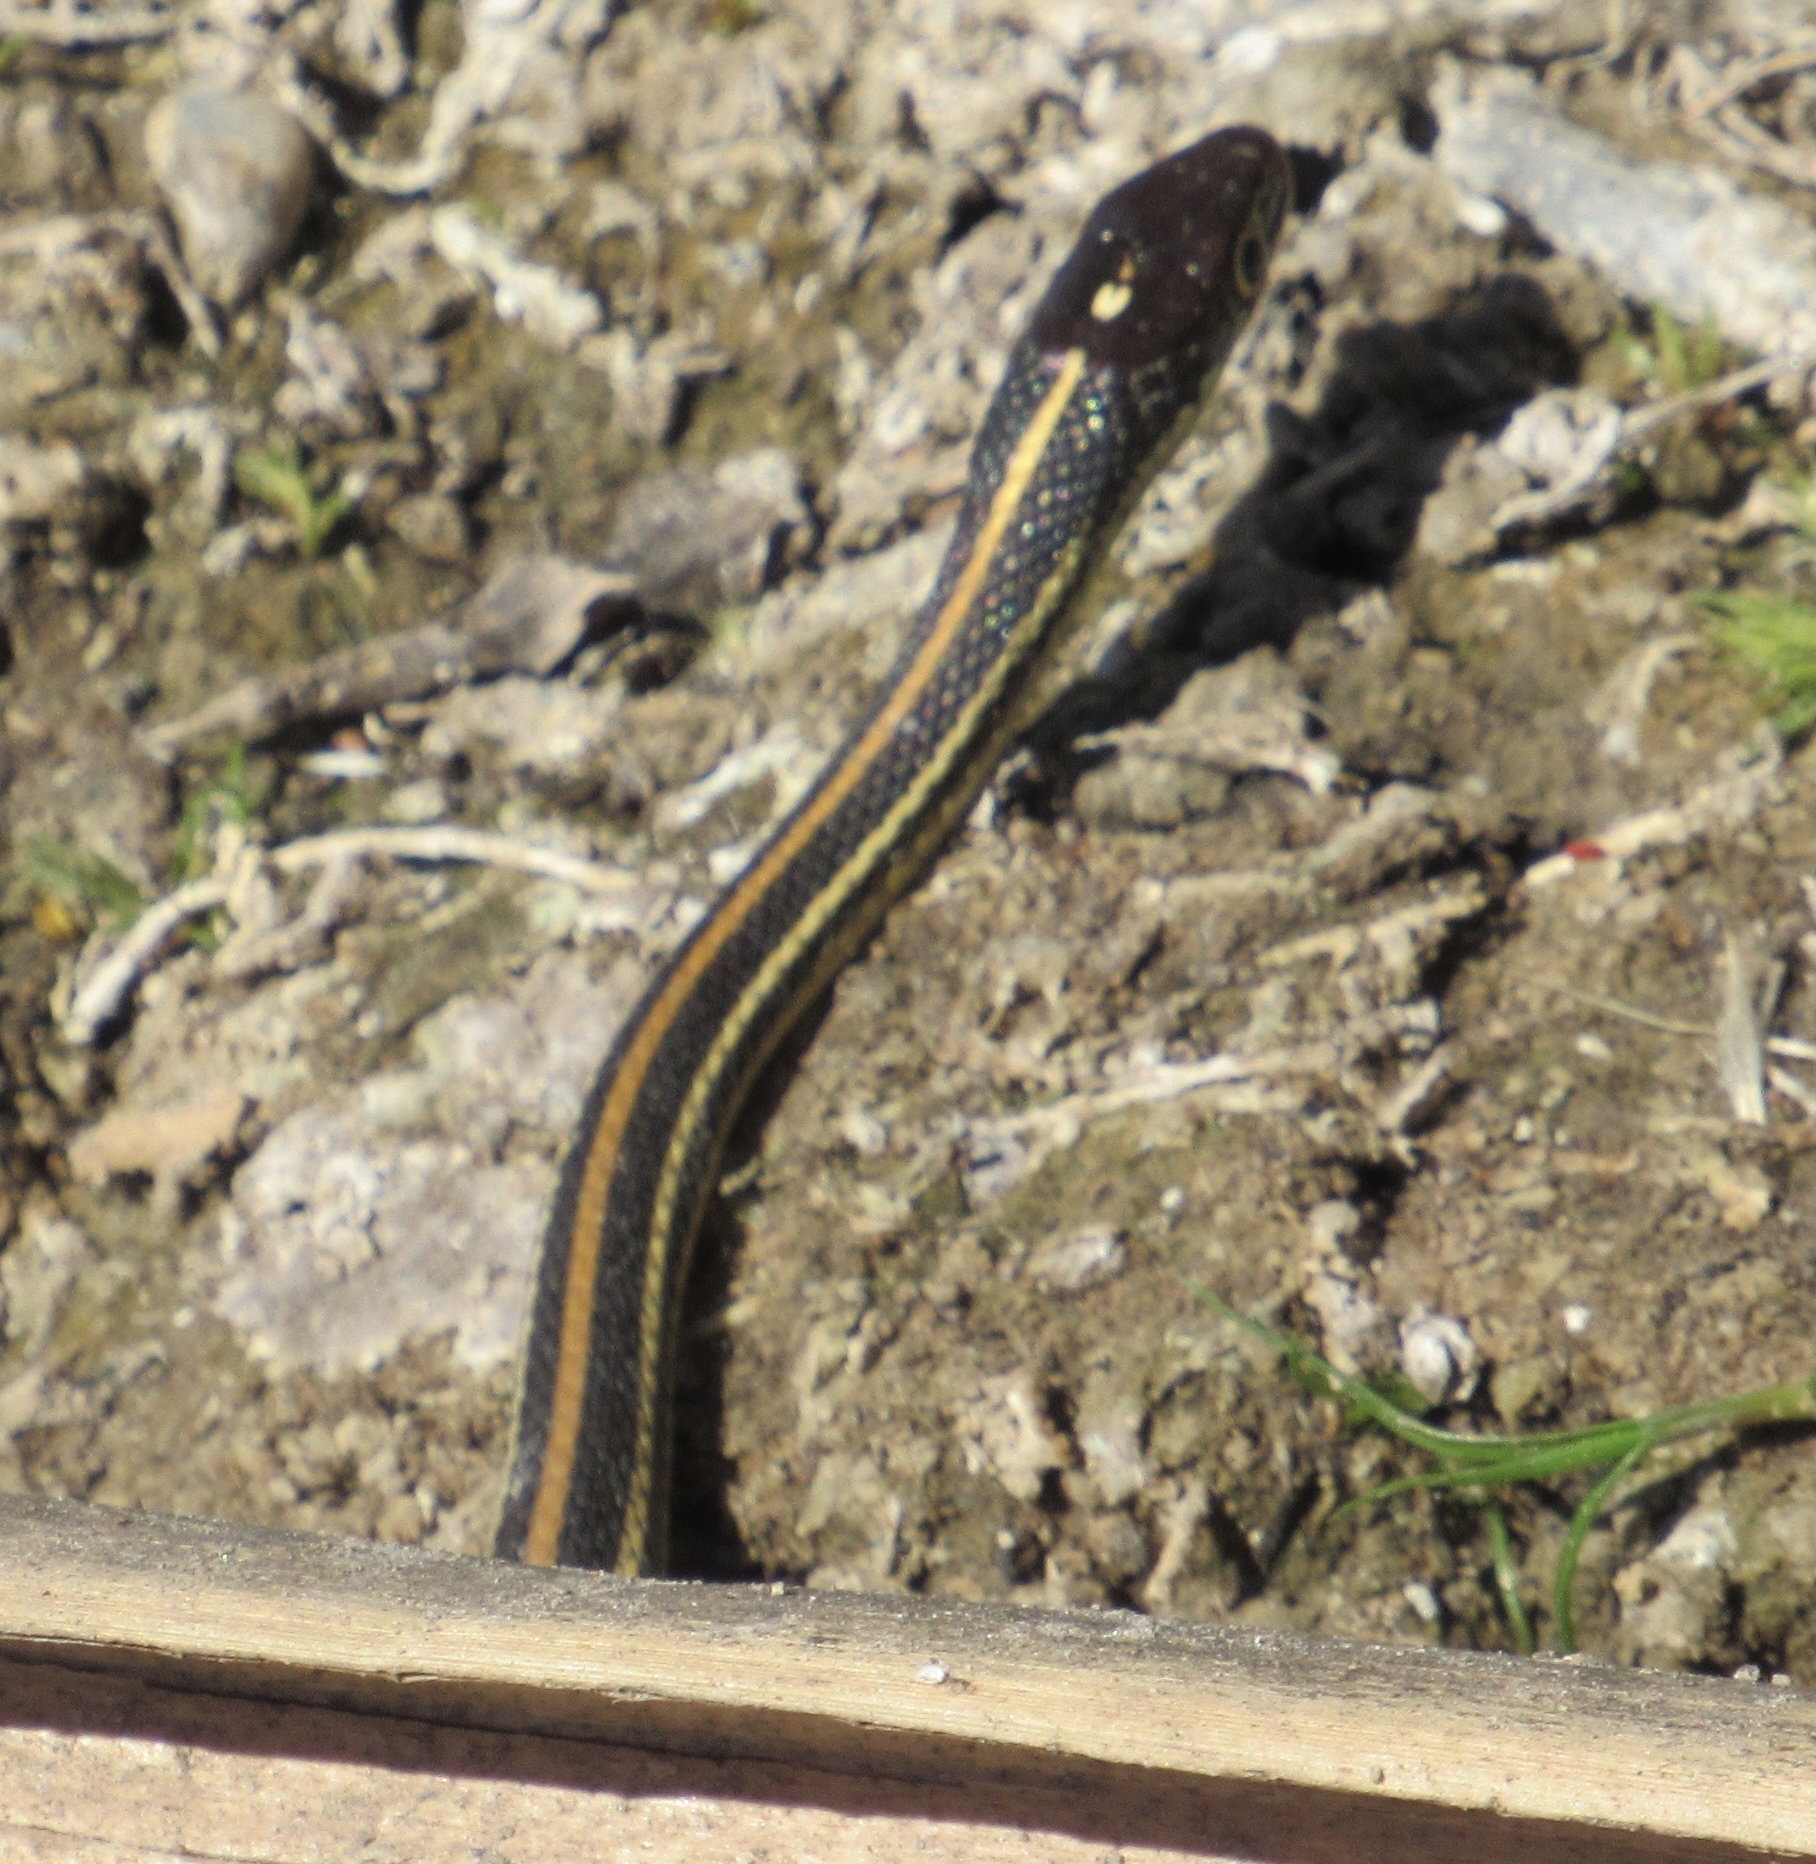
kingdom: Animalia
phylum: Chordata
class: Squamata
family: Colubridae
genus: Thamnophis
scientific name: Thamnophis proximus
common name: Western ribbon snake
